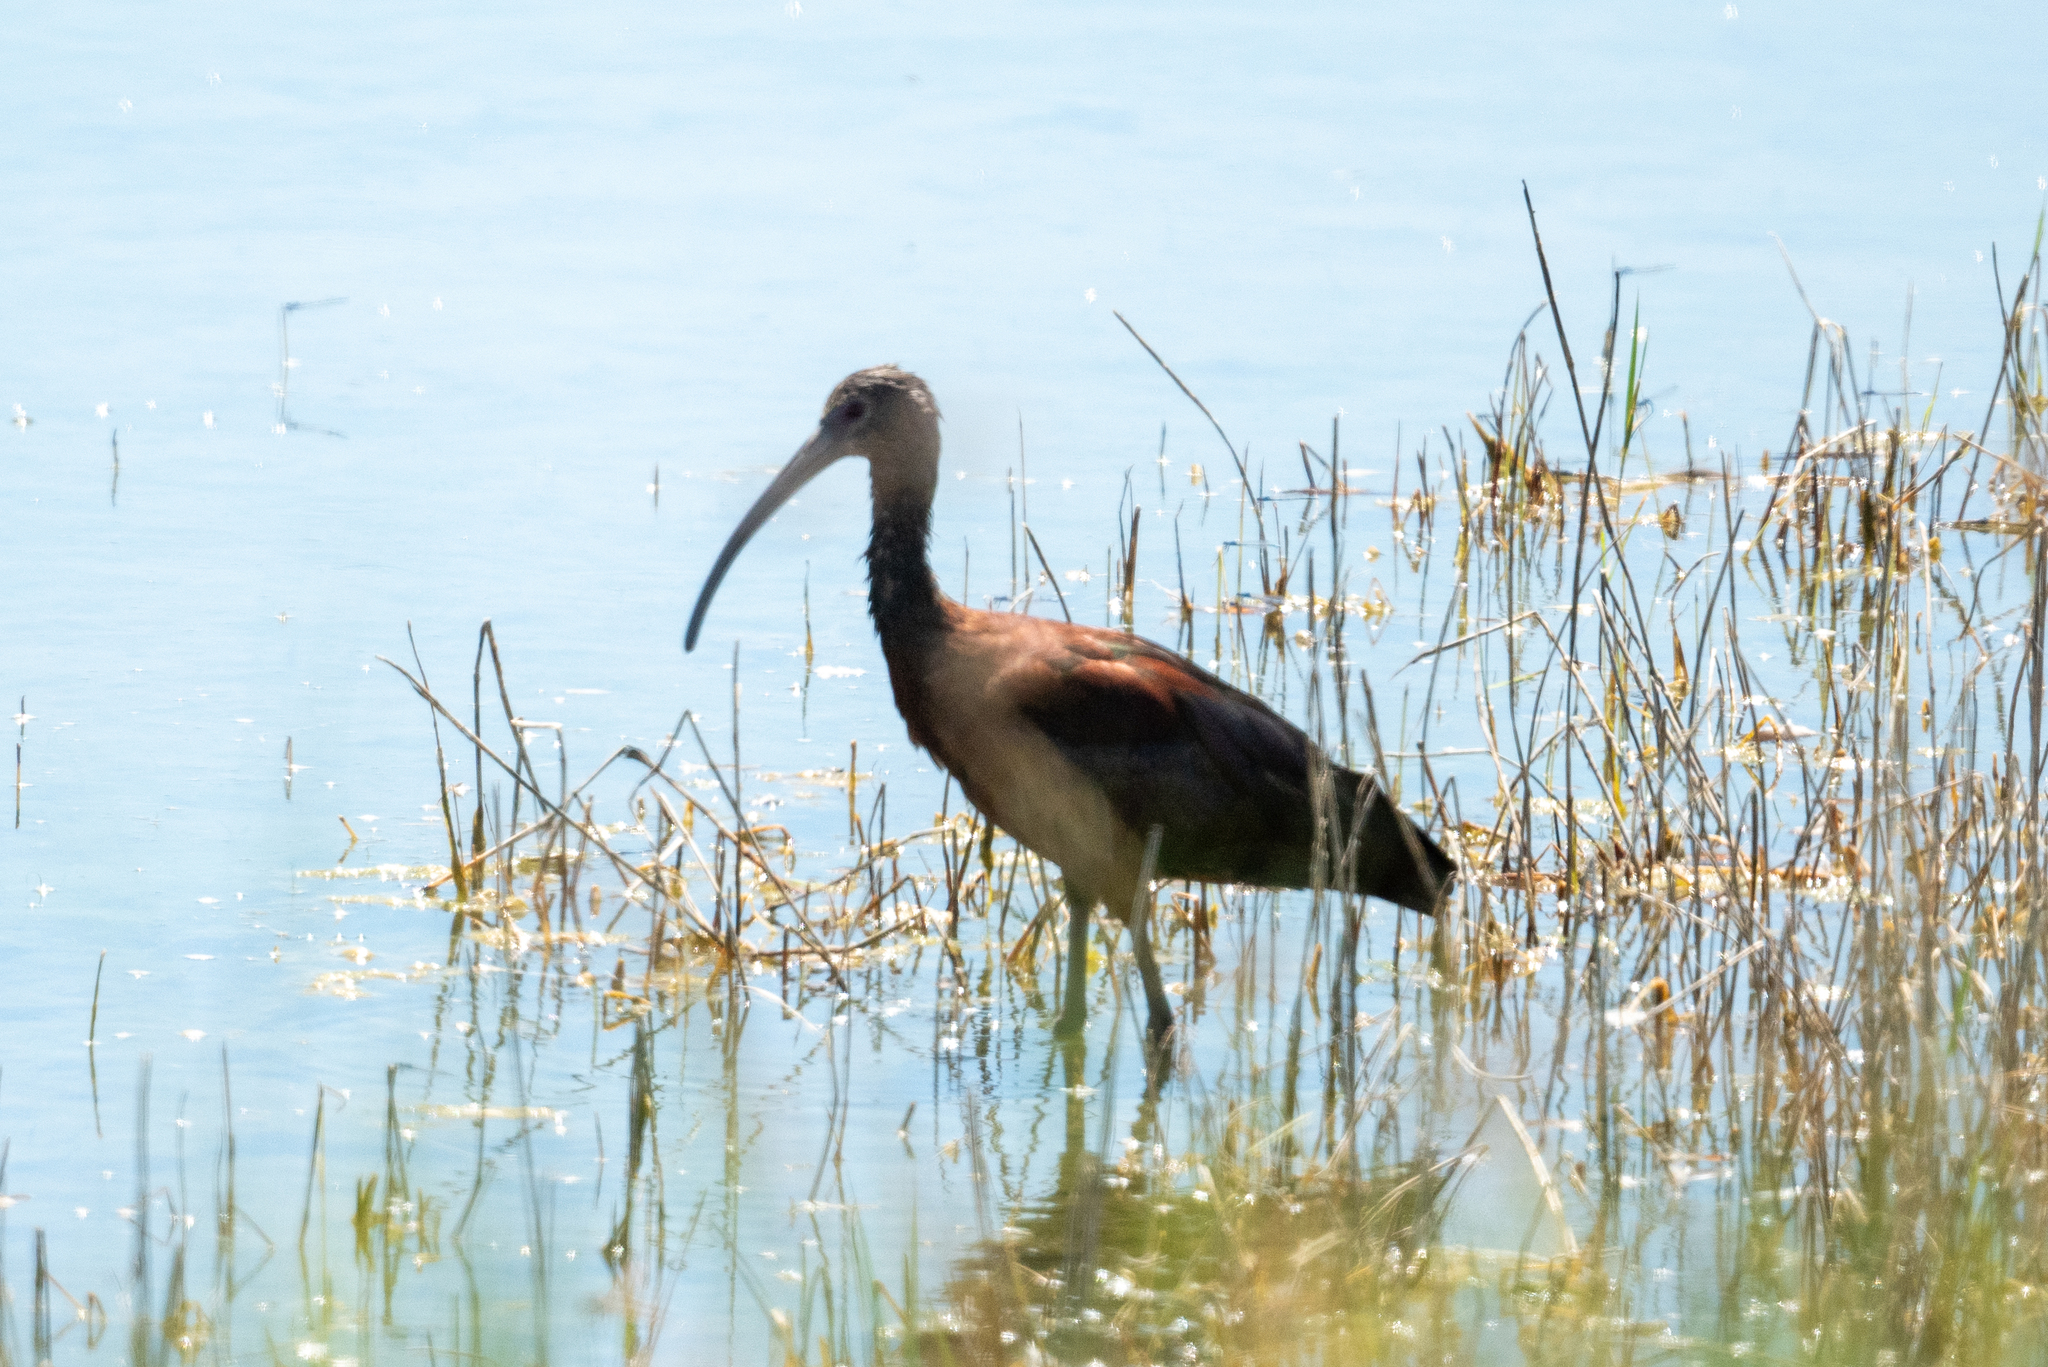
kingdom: Animalia
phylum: Chordata
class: Aves
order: Pelecaniformes
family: Threskiornithidae
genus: Plegadis
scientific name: Plegadis chihi
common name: White-faced ibis
